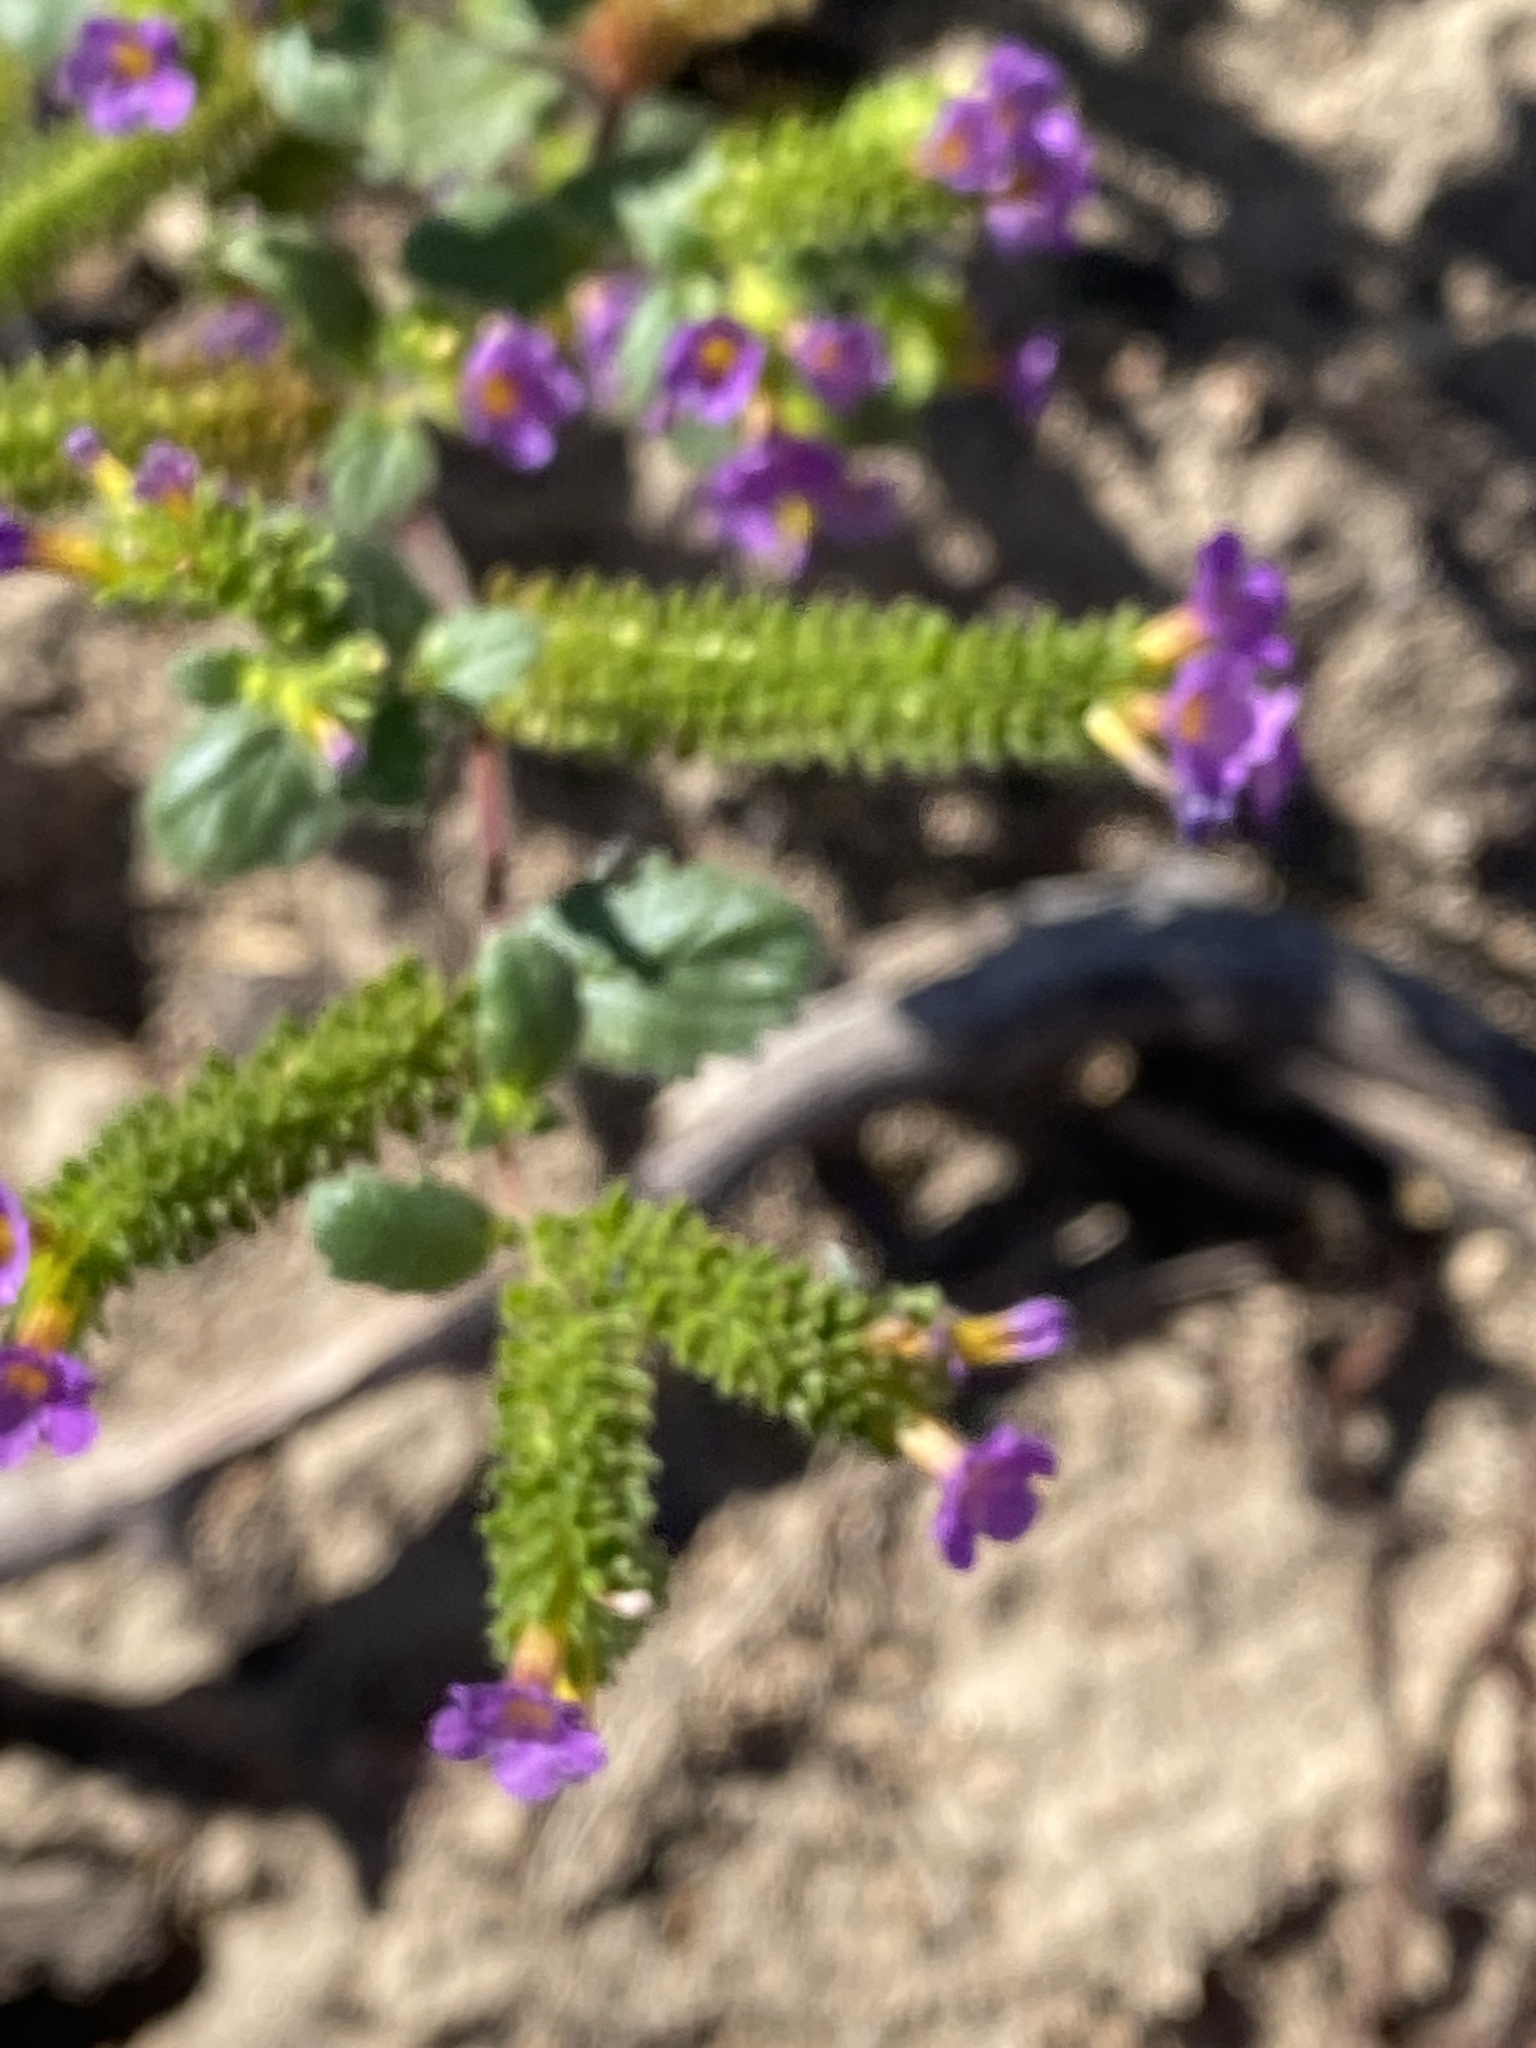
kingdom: Plantae
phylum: Tracheophyta
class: Magnoliopsida
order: Boraginales
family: Hydrophyllaceae
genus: Phacelia
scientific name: Phacelia brachyloba
